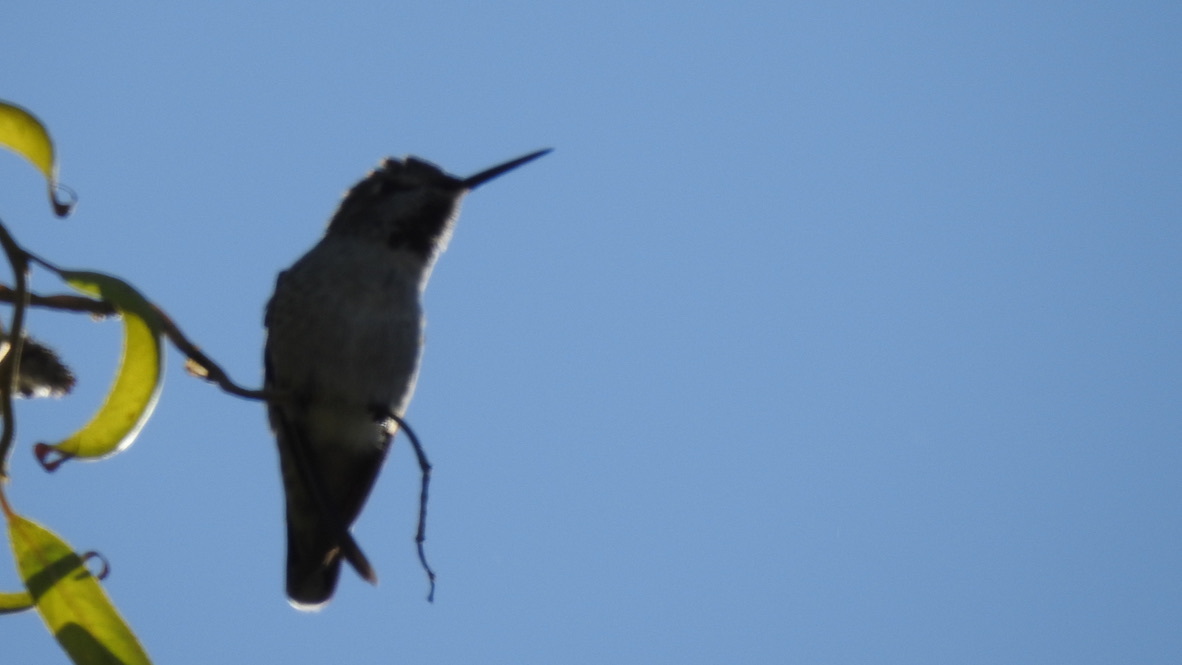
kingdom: Animalia
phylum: Chordata
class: Aves
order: Apodiformes
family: Trochilidae
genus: Calypte
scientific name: Calypte anna
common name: Anna's hummingbird
